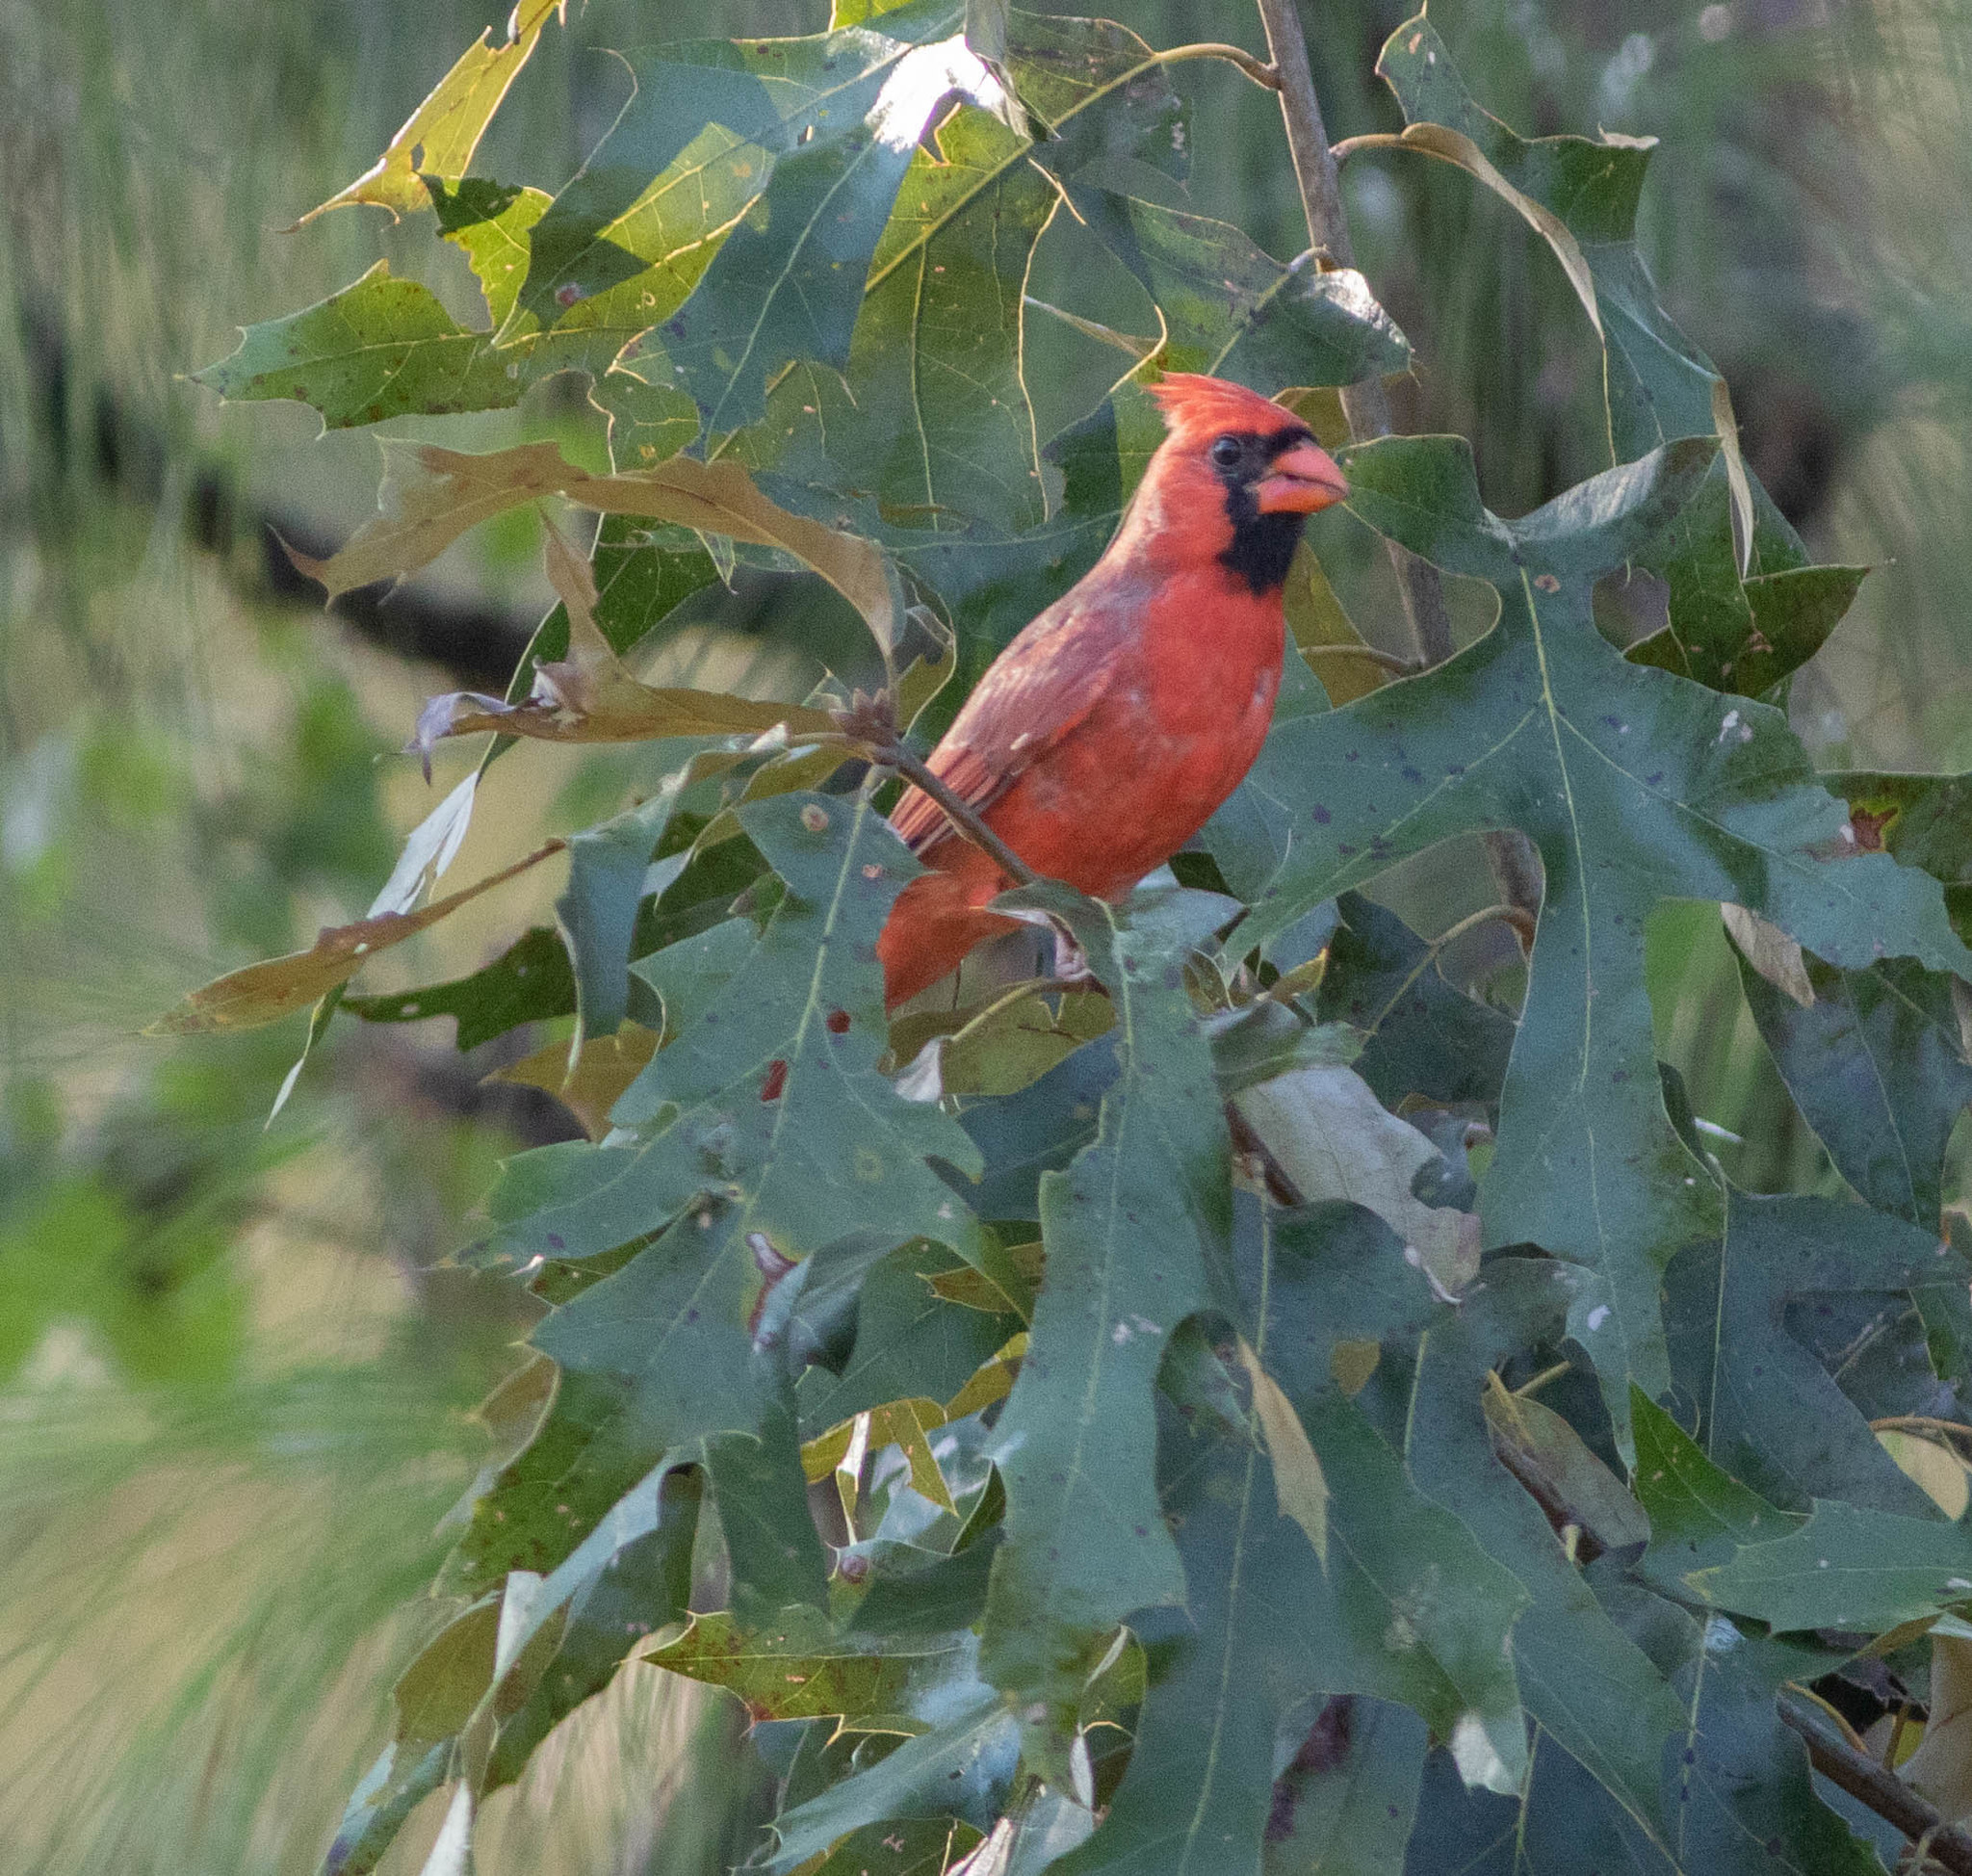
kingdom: Animalia
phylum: Chordata
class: Aves
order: Passeriformes
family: Cardinalidae
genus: Cardinalis
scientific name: Cardinalis cardinalis
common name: Northern cardinal
